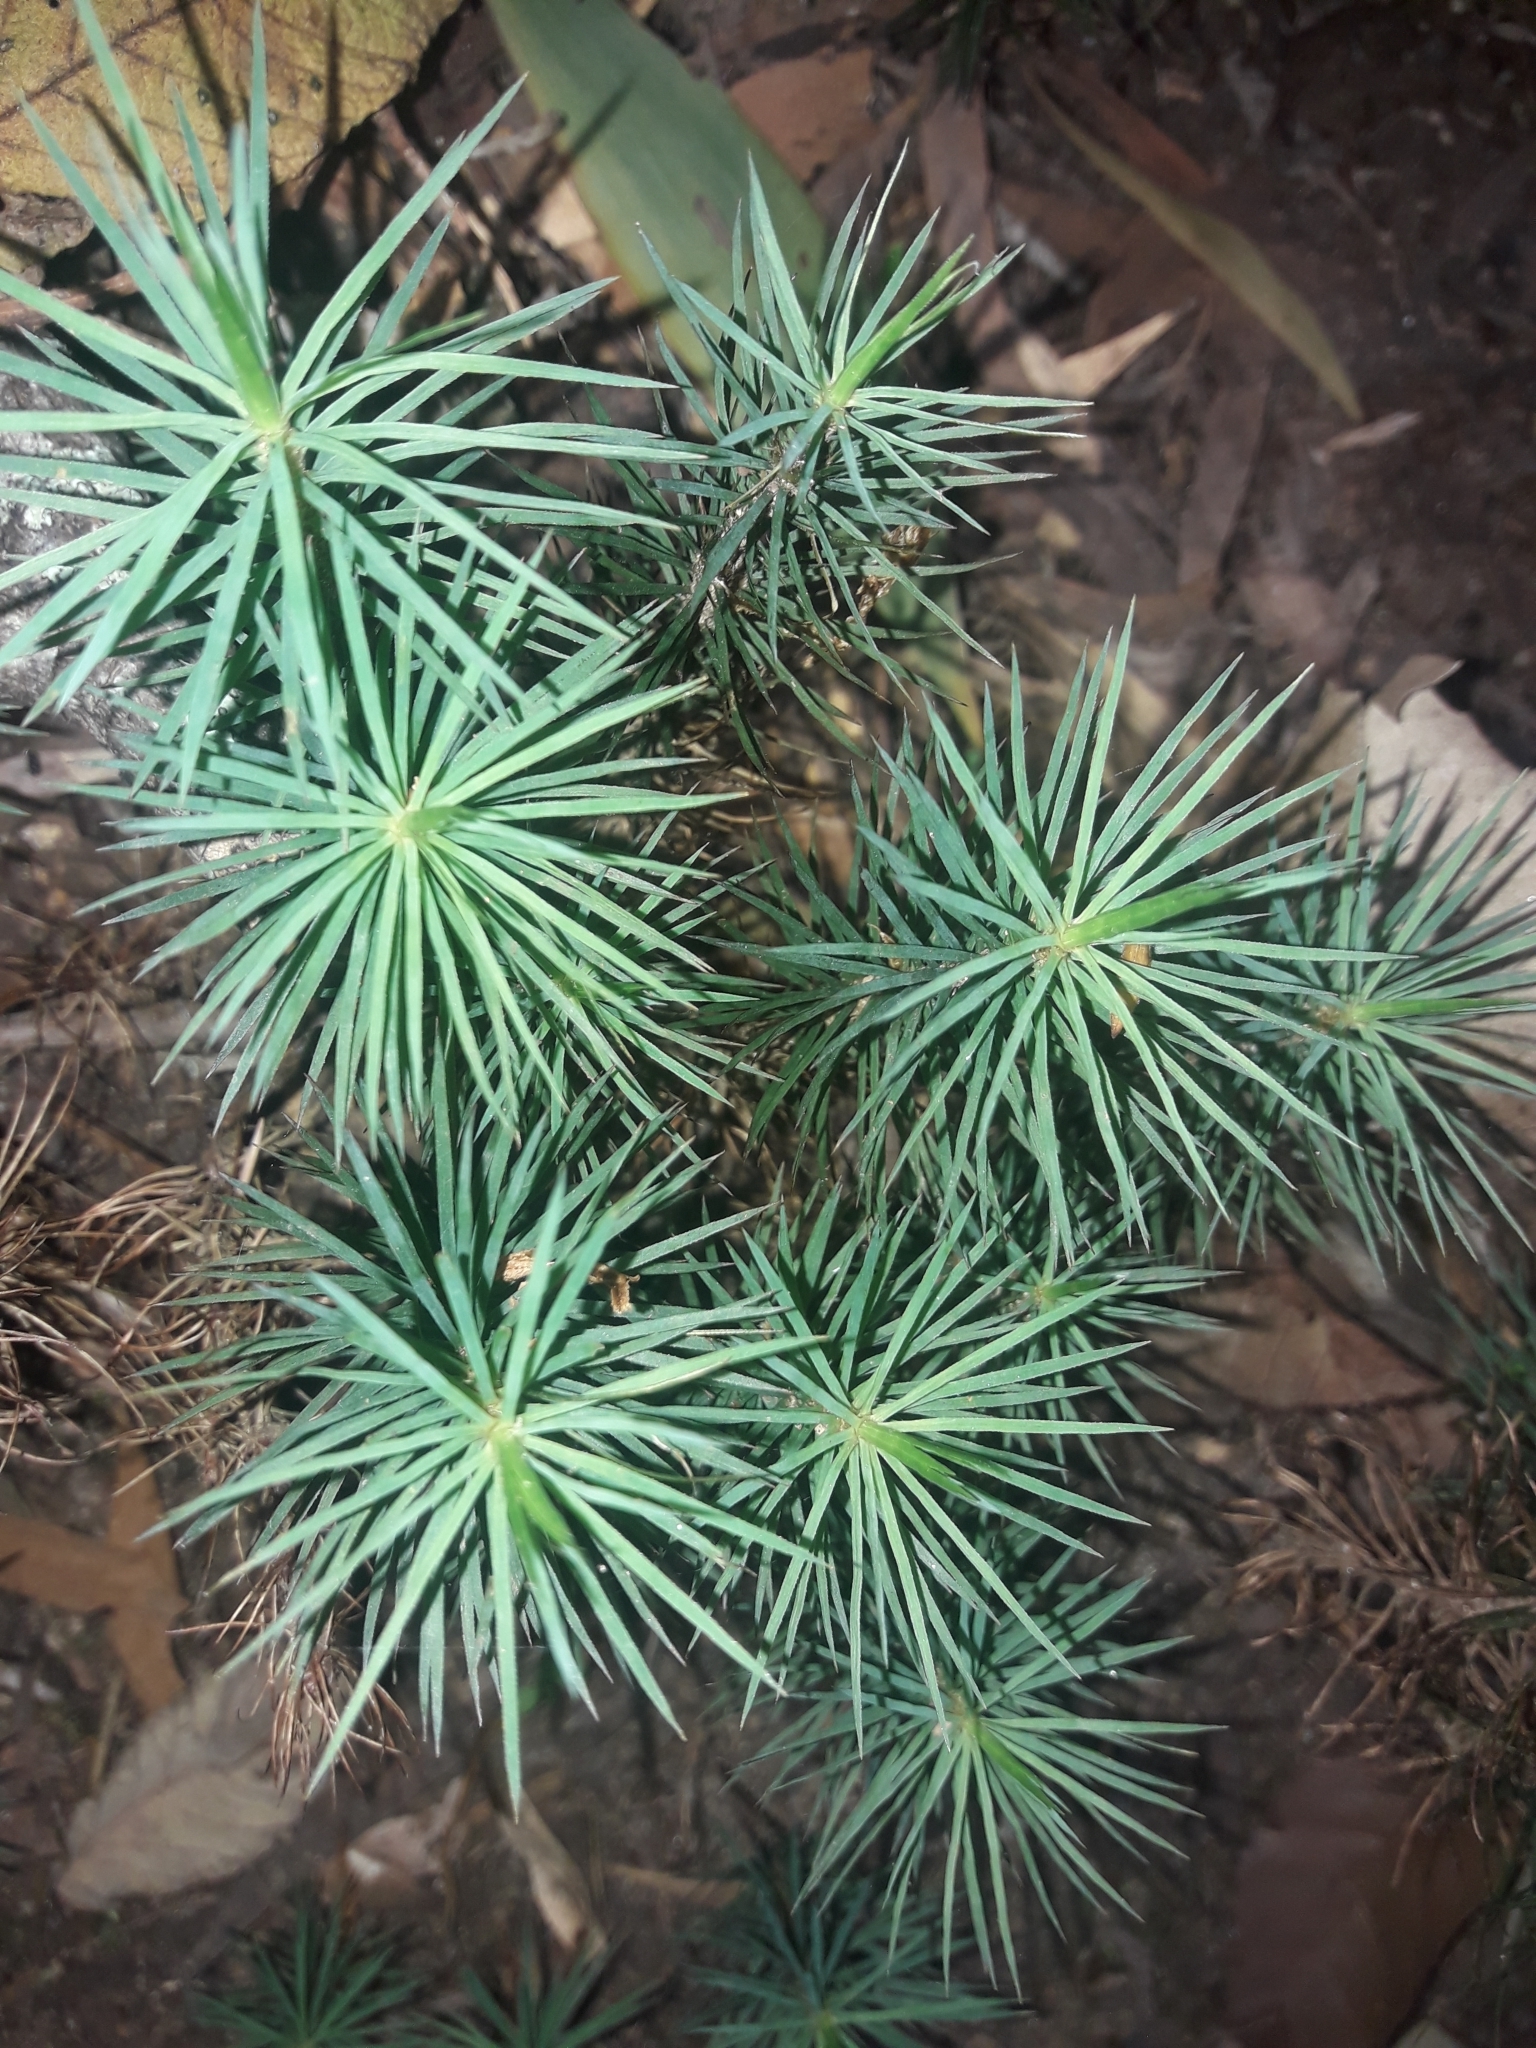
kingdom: Plantae
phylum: Bryophyta
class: Polytrichopsida
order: Polytrichales
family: Polytrichaceae
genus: Dawsonia
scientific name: Dawsonia superba
